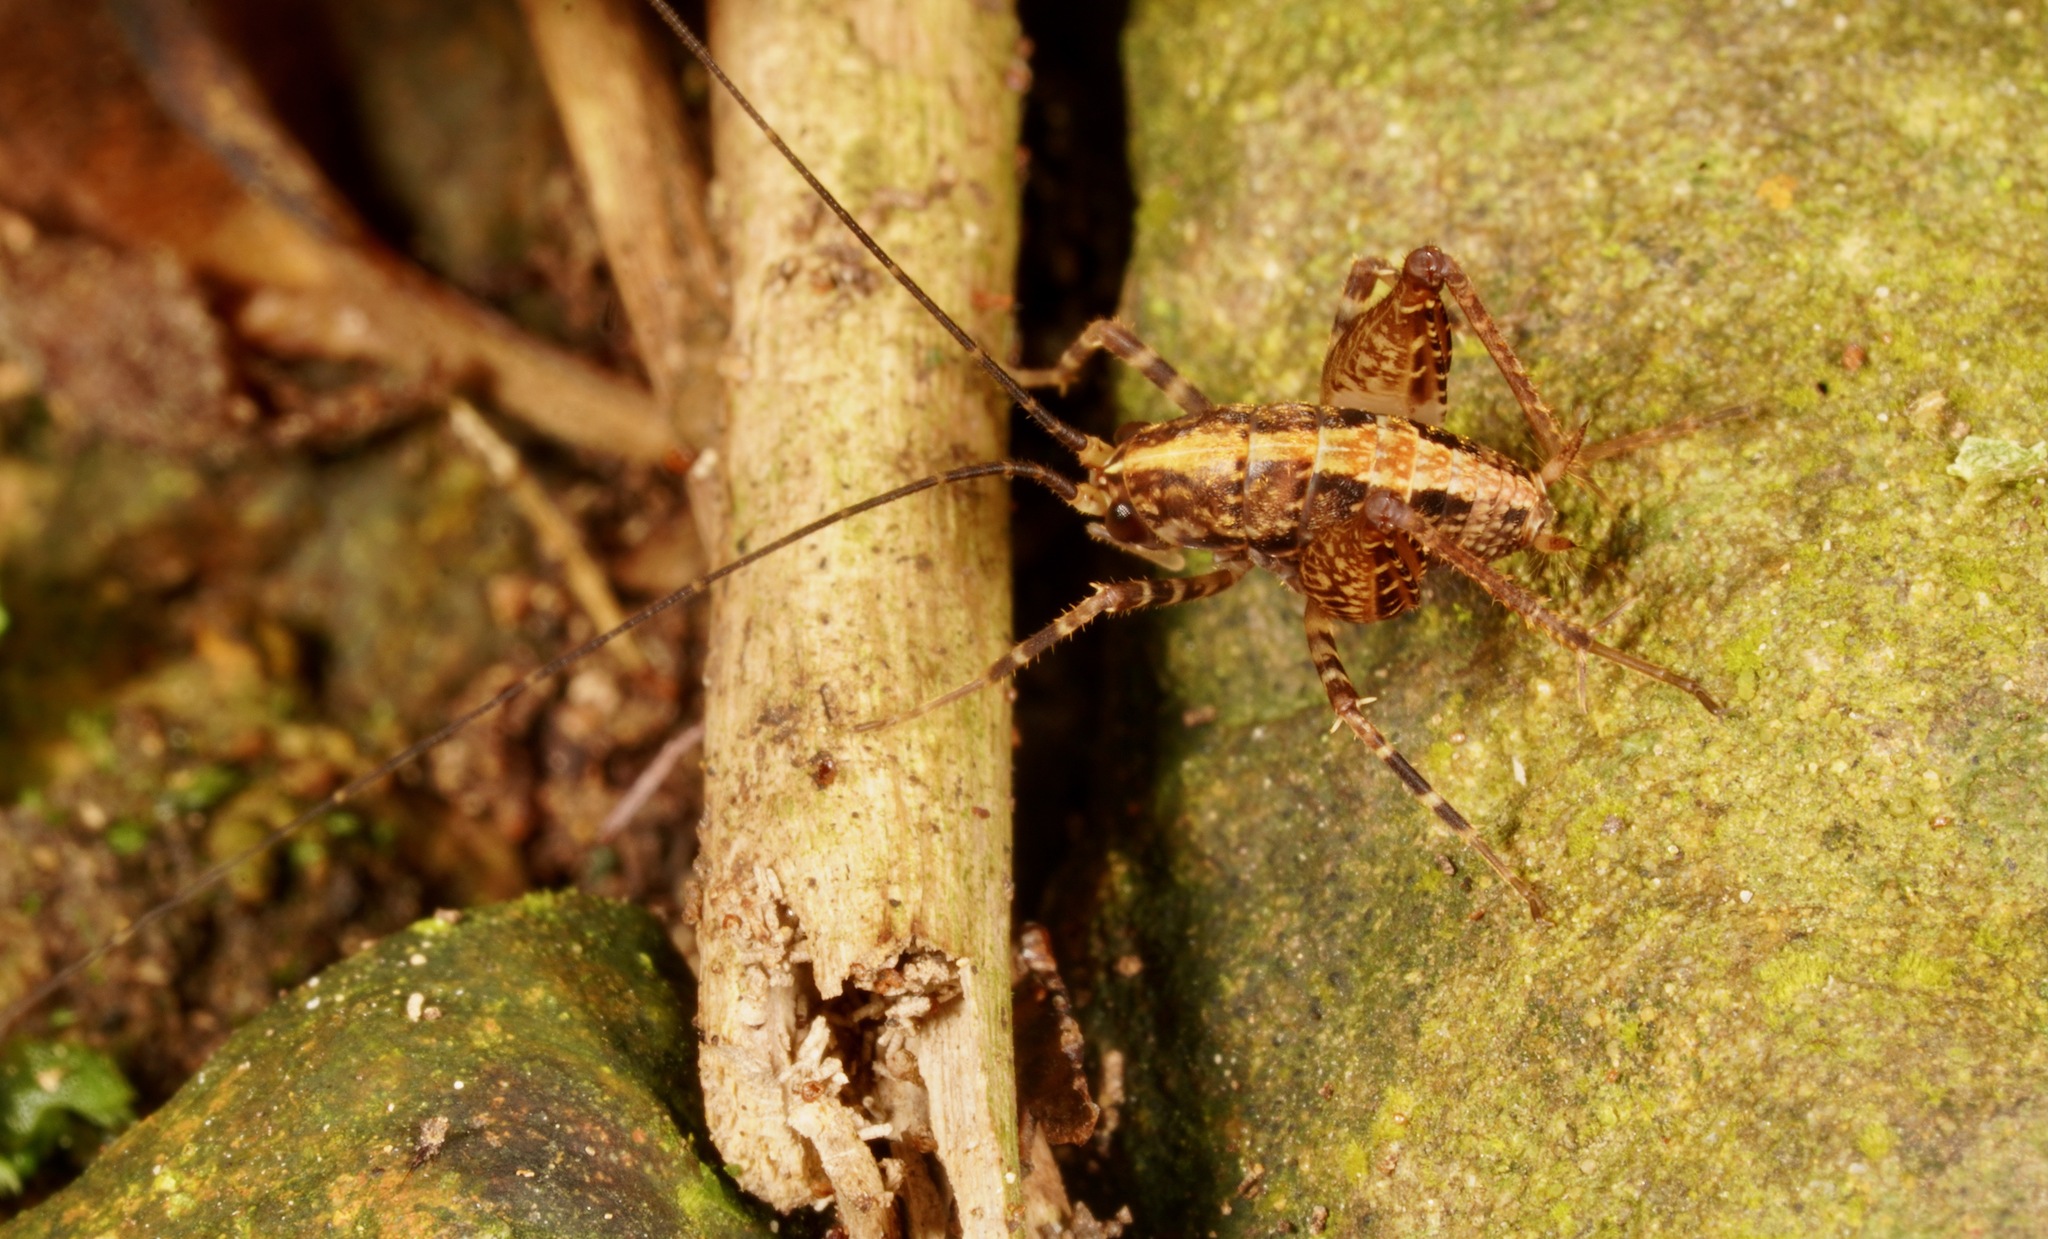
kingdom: Animalia
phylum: Arthropoda
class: Insecta
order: Orthoptera
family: Rhaphidophoridae
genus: Pleioplectron
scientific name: Pleioplectron hudsoni
